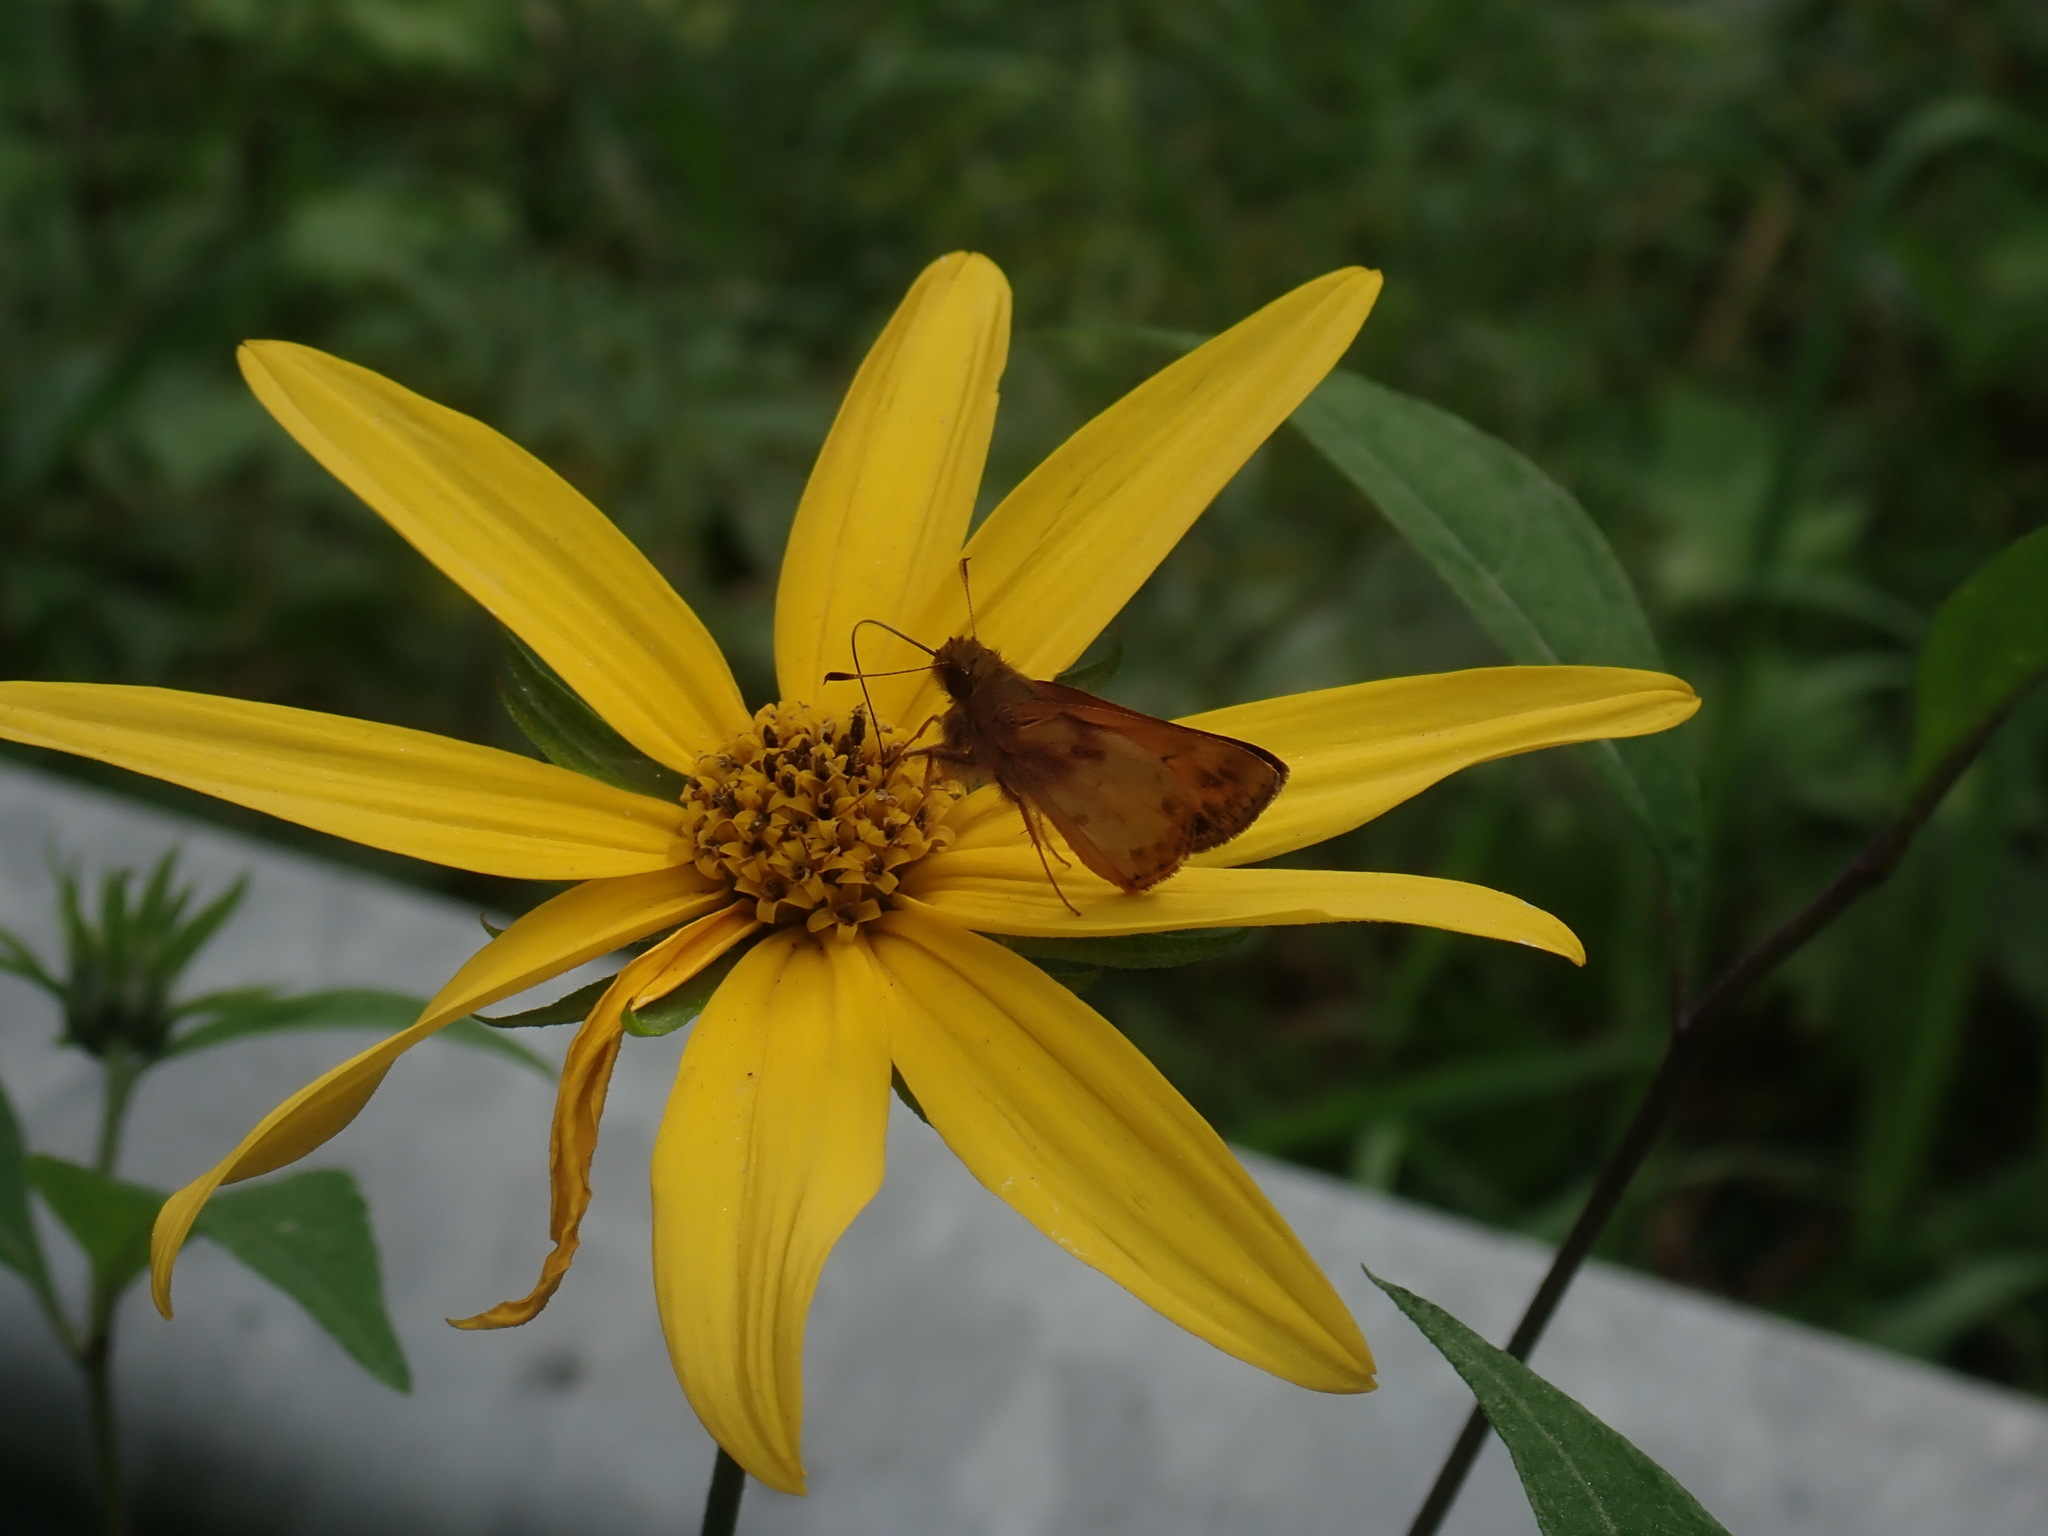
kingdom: Animalia
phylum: Arthropoda
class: Insecta
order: Lepidoptera
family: Hesperiidae
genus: Lon
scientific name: Lon zabulon
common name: Zabulon skipper
